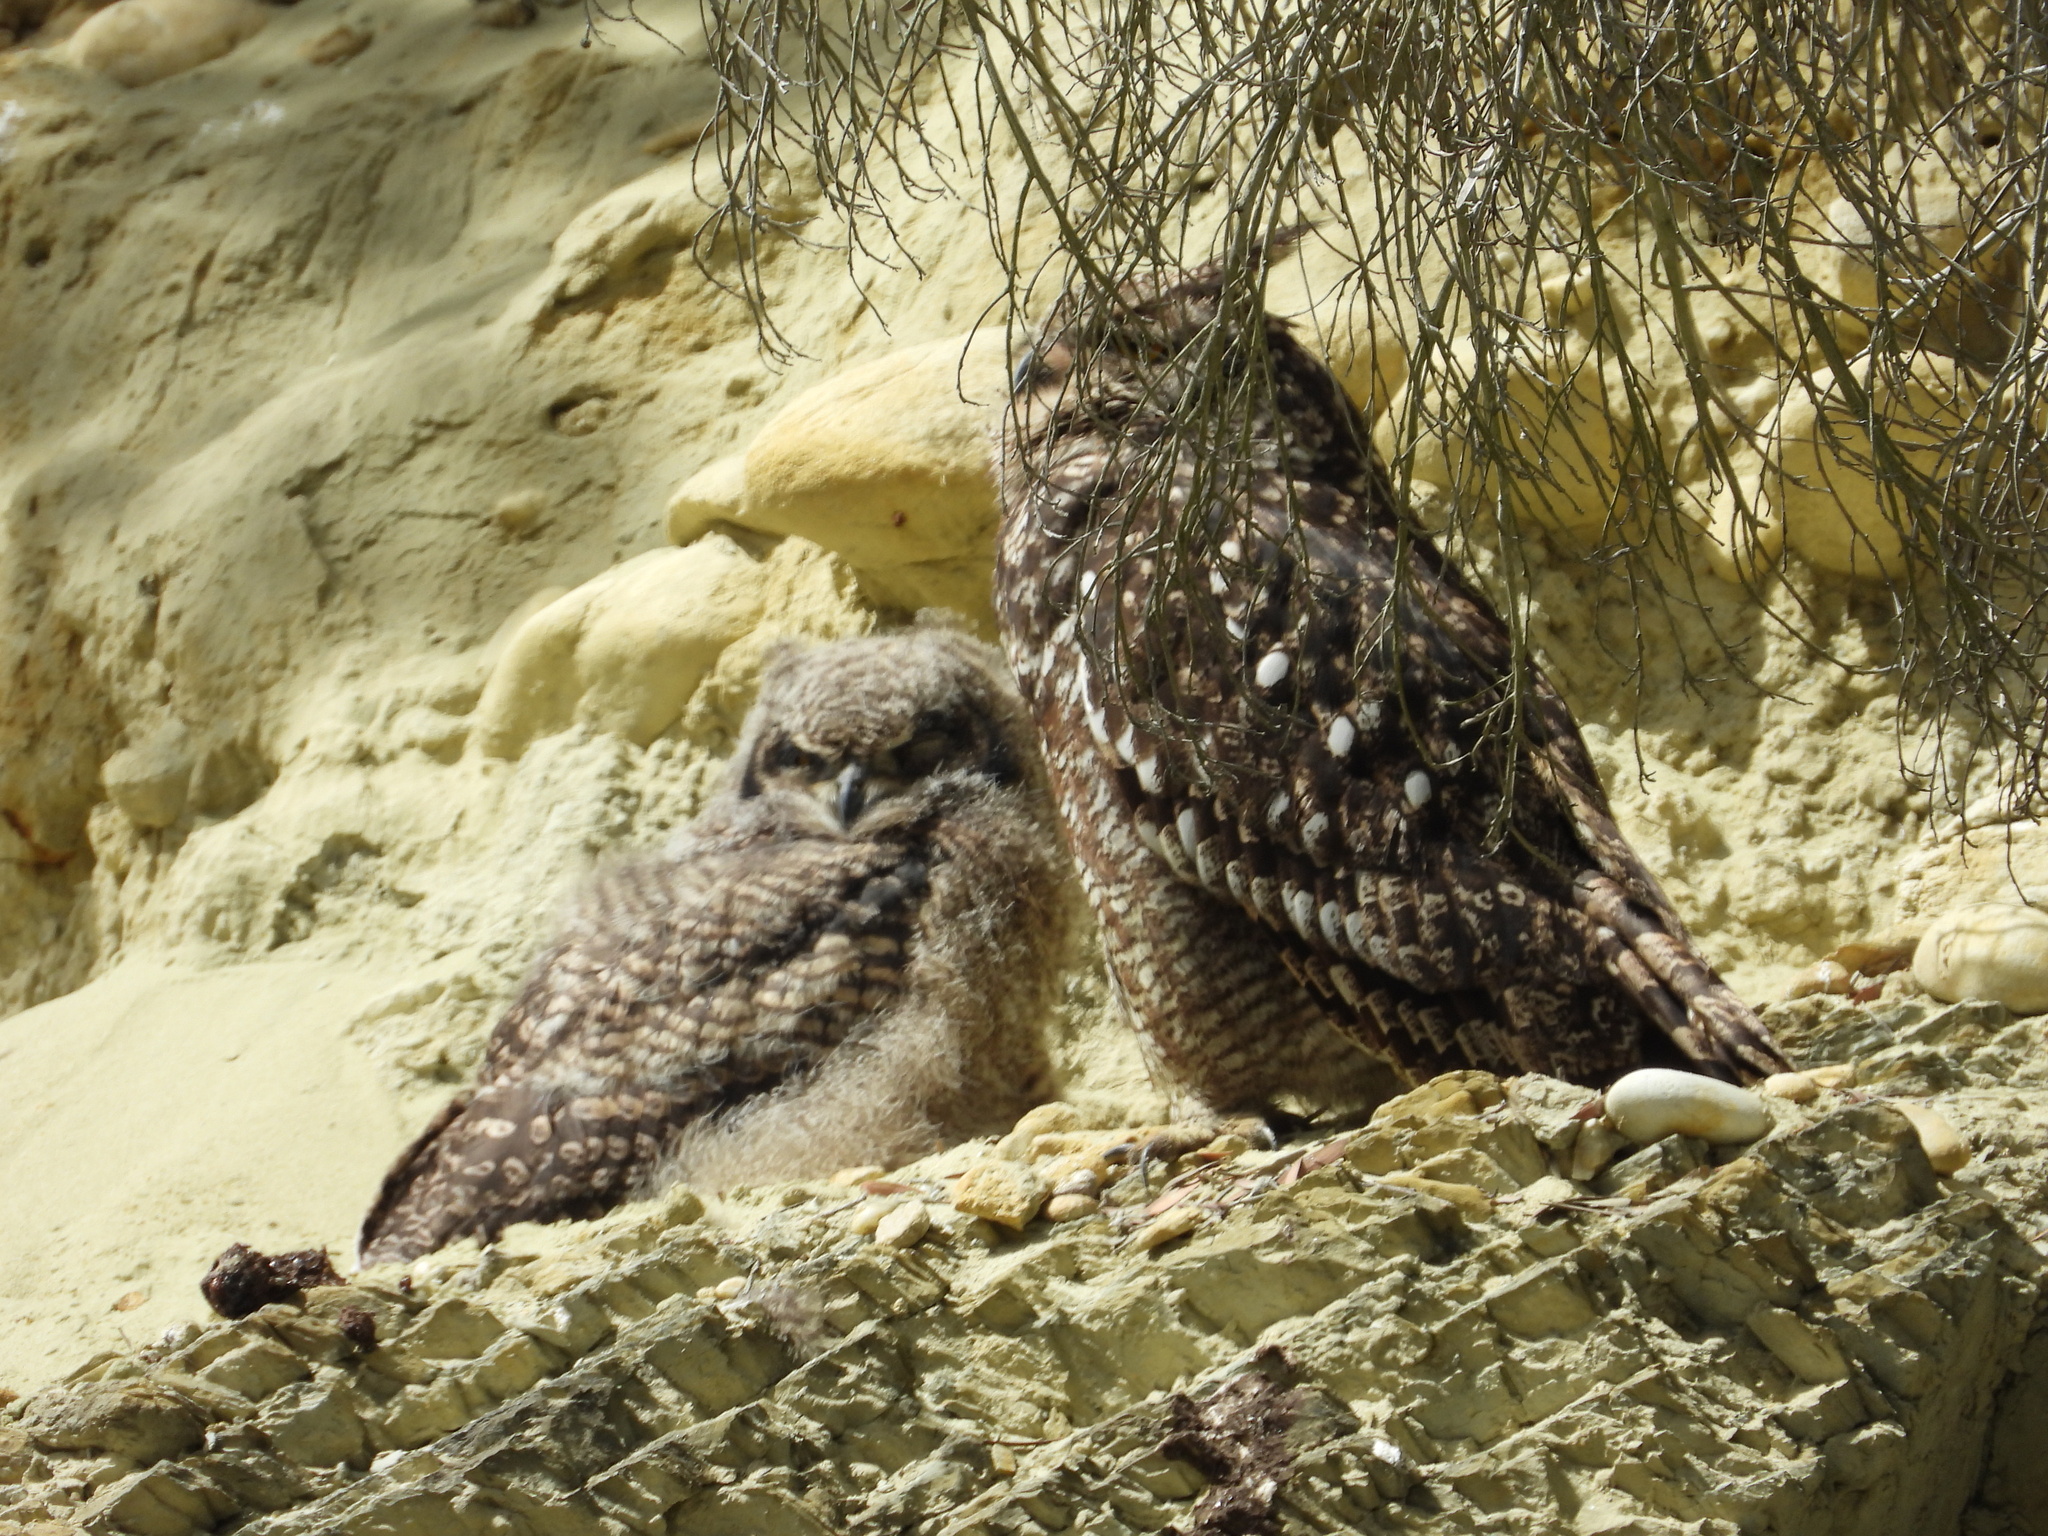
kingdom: Animalia
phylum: Chordata
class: Aves
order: Strigiformes
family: Strigidae
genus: Bubo
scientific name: Bubo africanus
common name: Spotted eagle-owl
